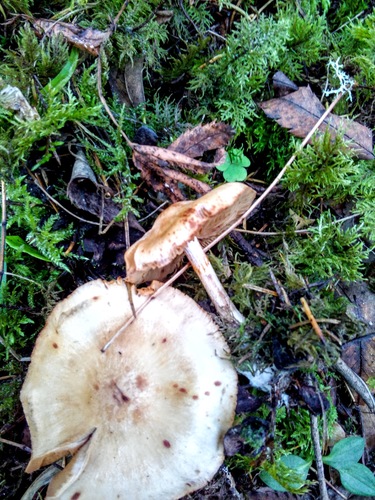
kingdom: Fungi
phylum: Basidiomycota
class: Agaricomycetes
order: Agaricales
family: Cortinariaceae
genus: Cortinarius
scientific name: Cortinarius
